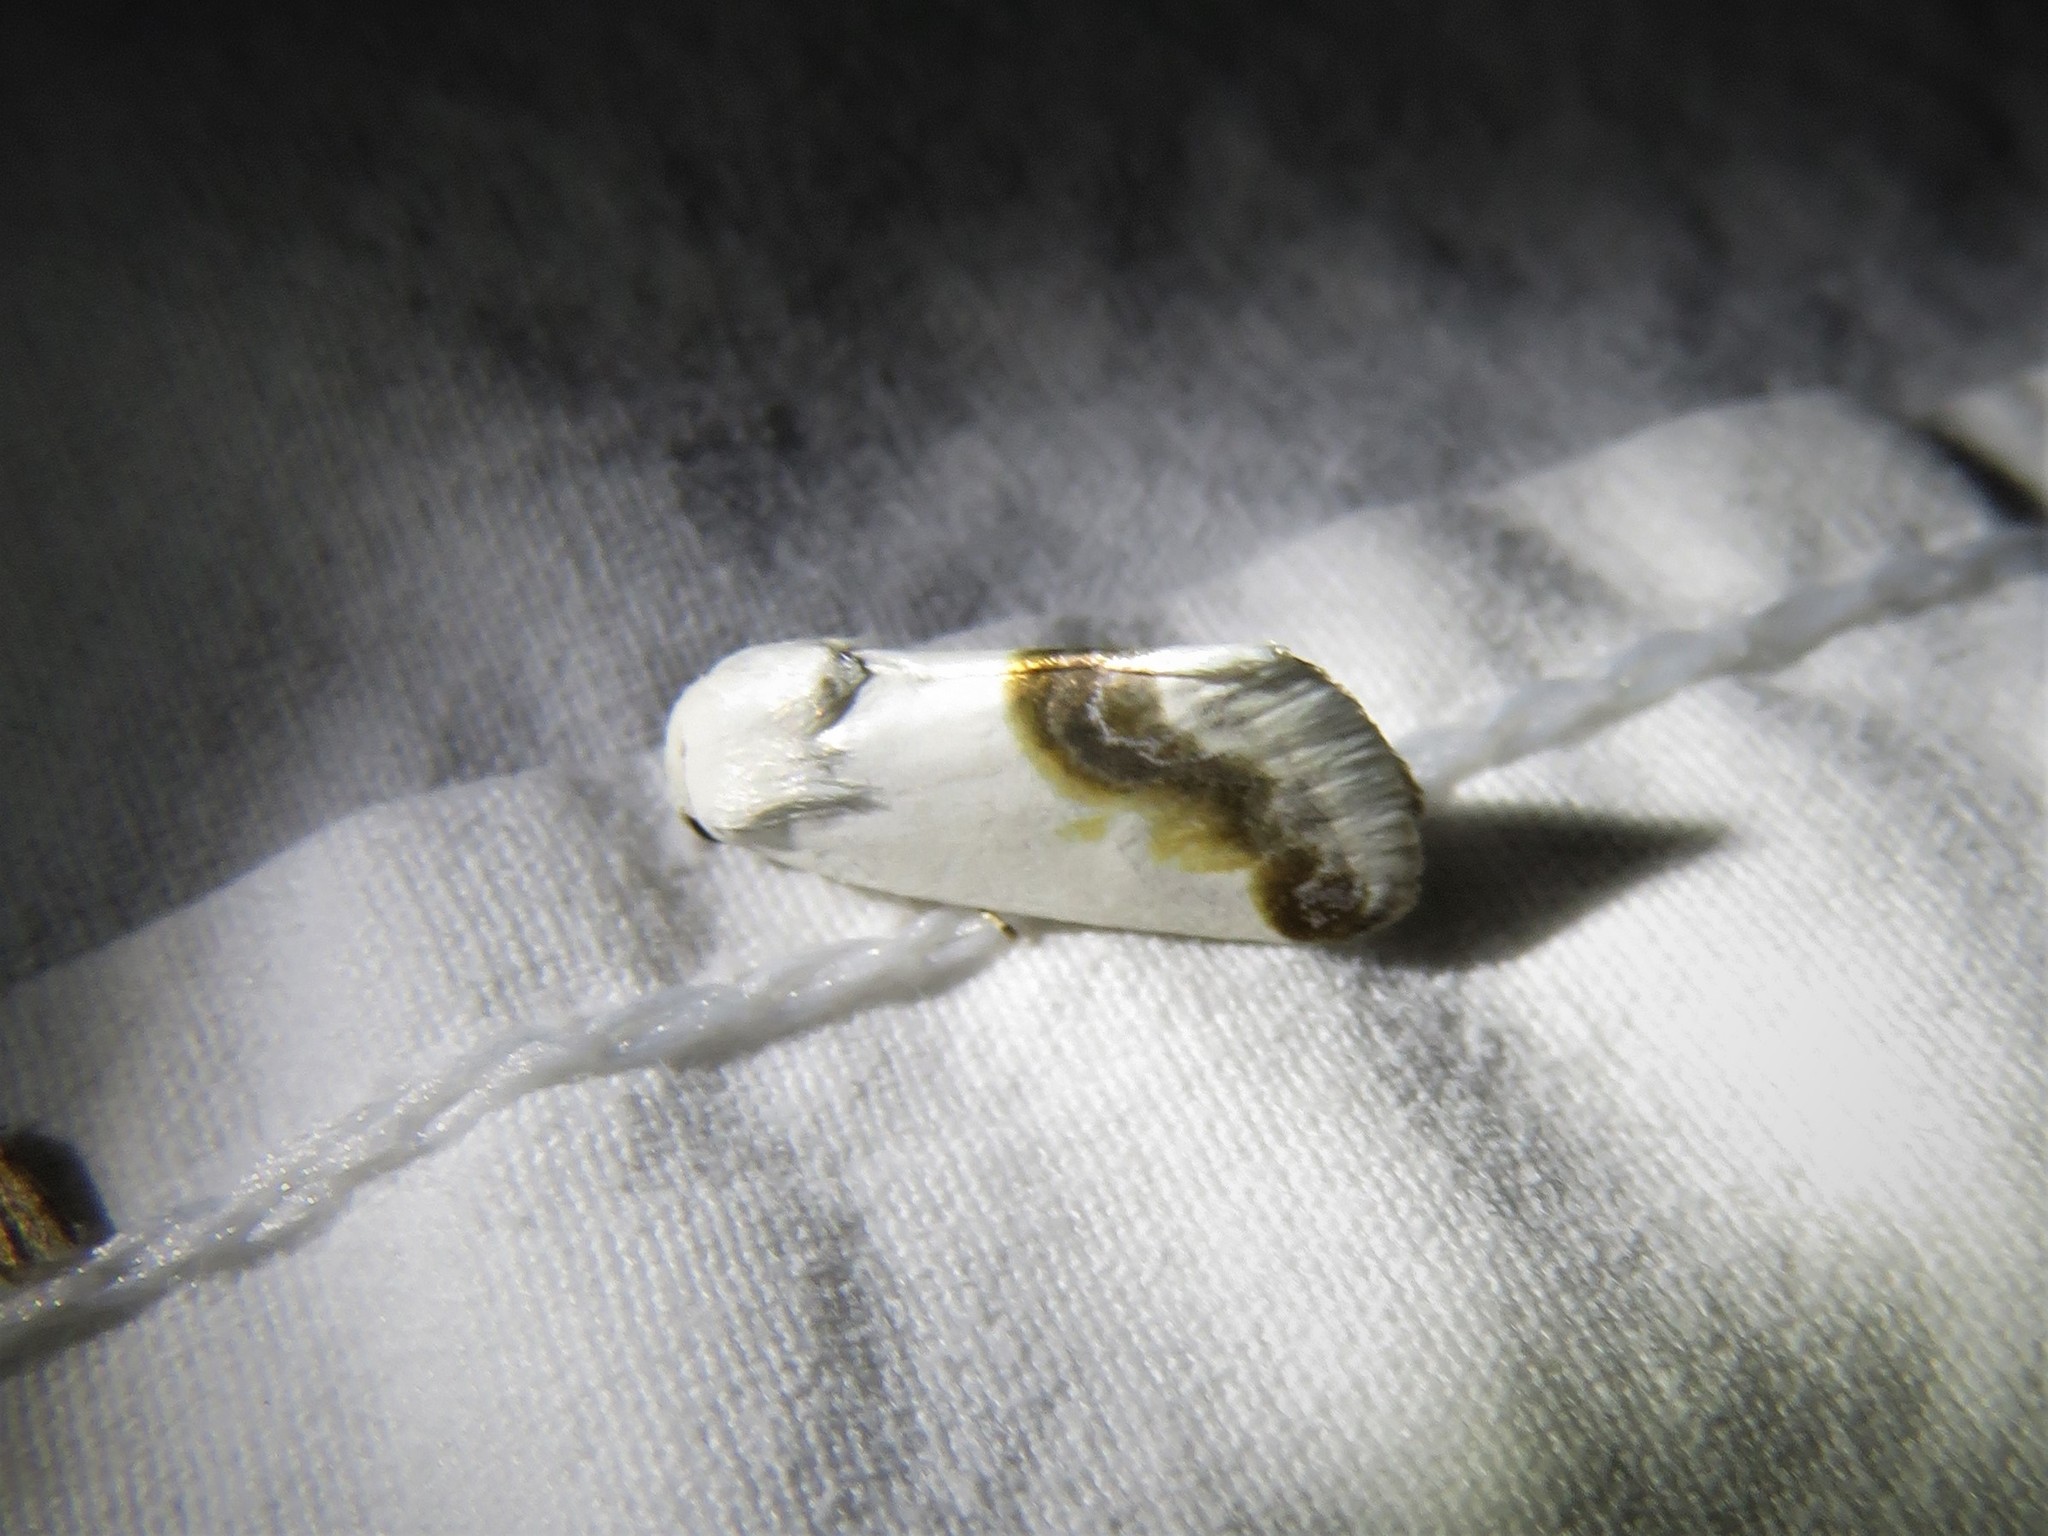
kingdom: Animalia
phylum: Arthropoda
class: Insecta
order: Lepidoptera
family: Noctuidae
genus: Acontia
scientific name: Acontia cretata
